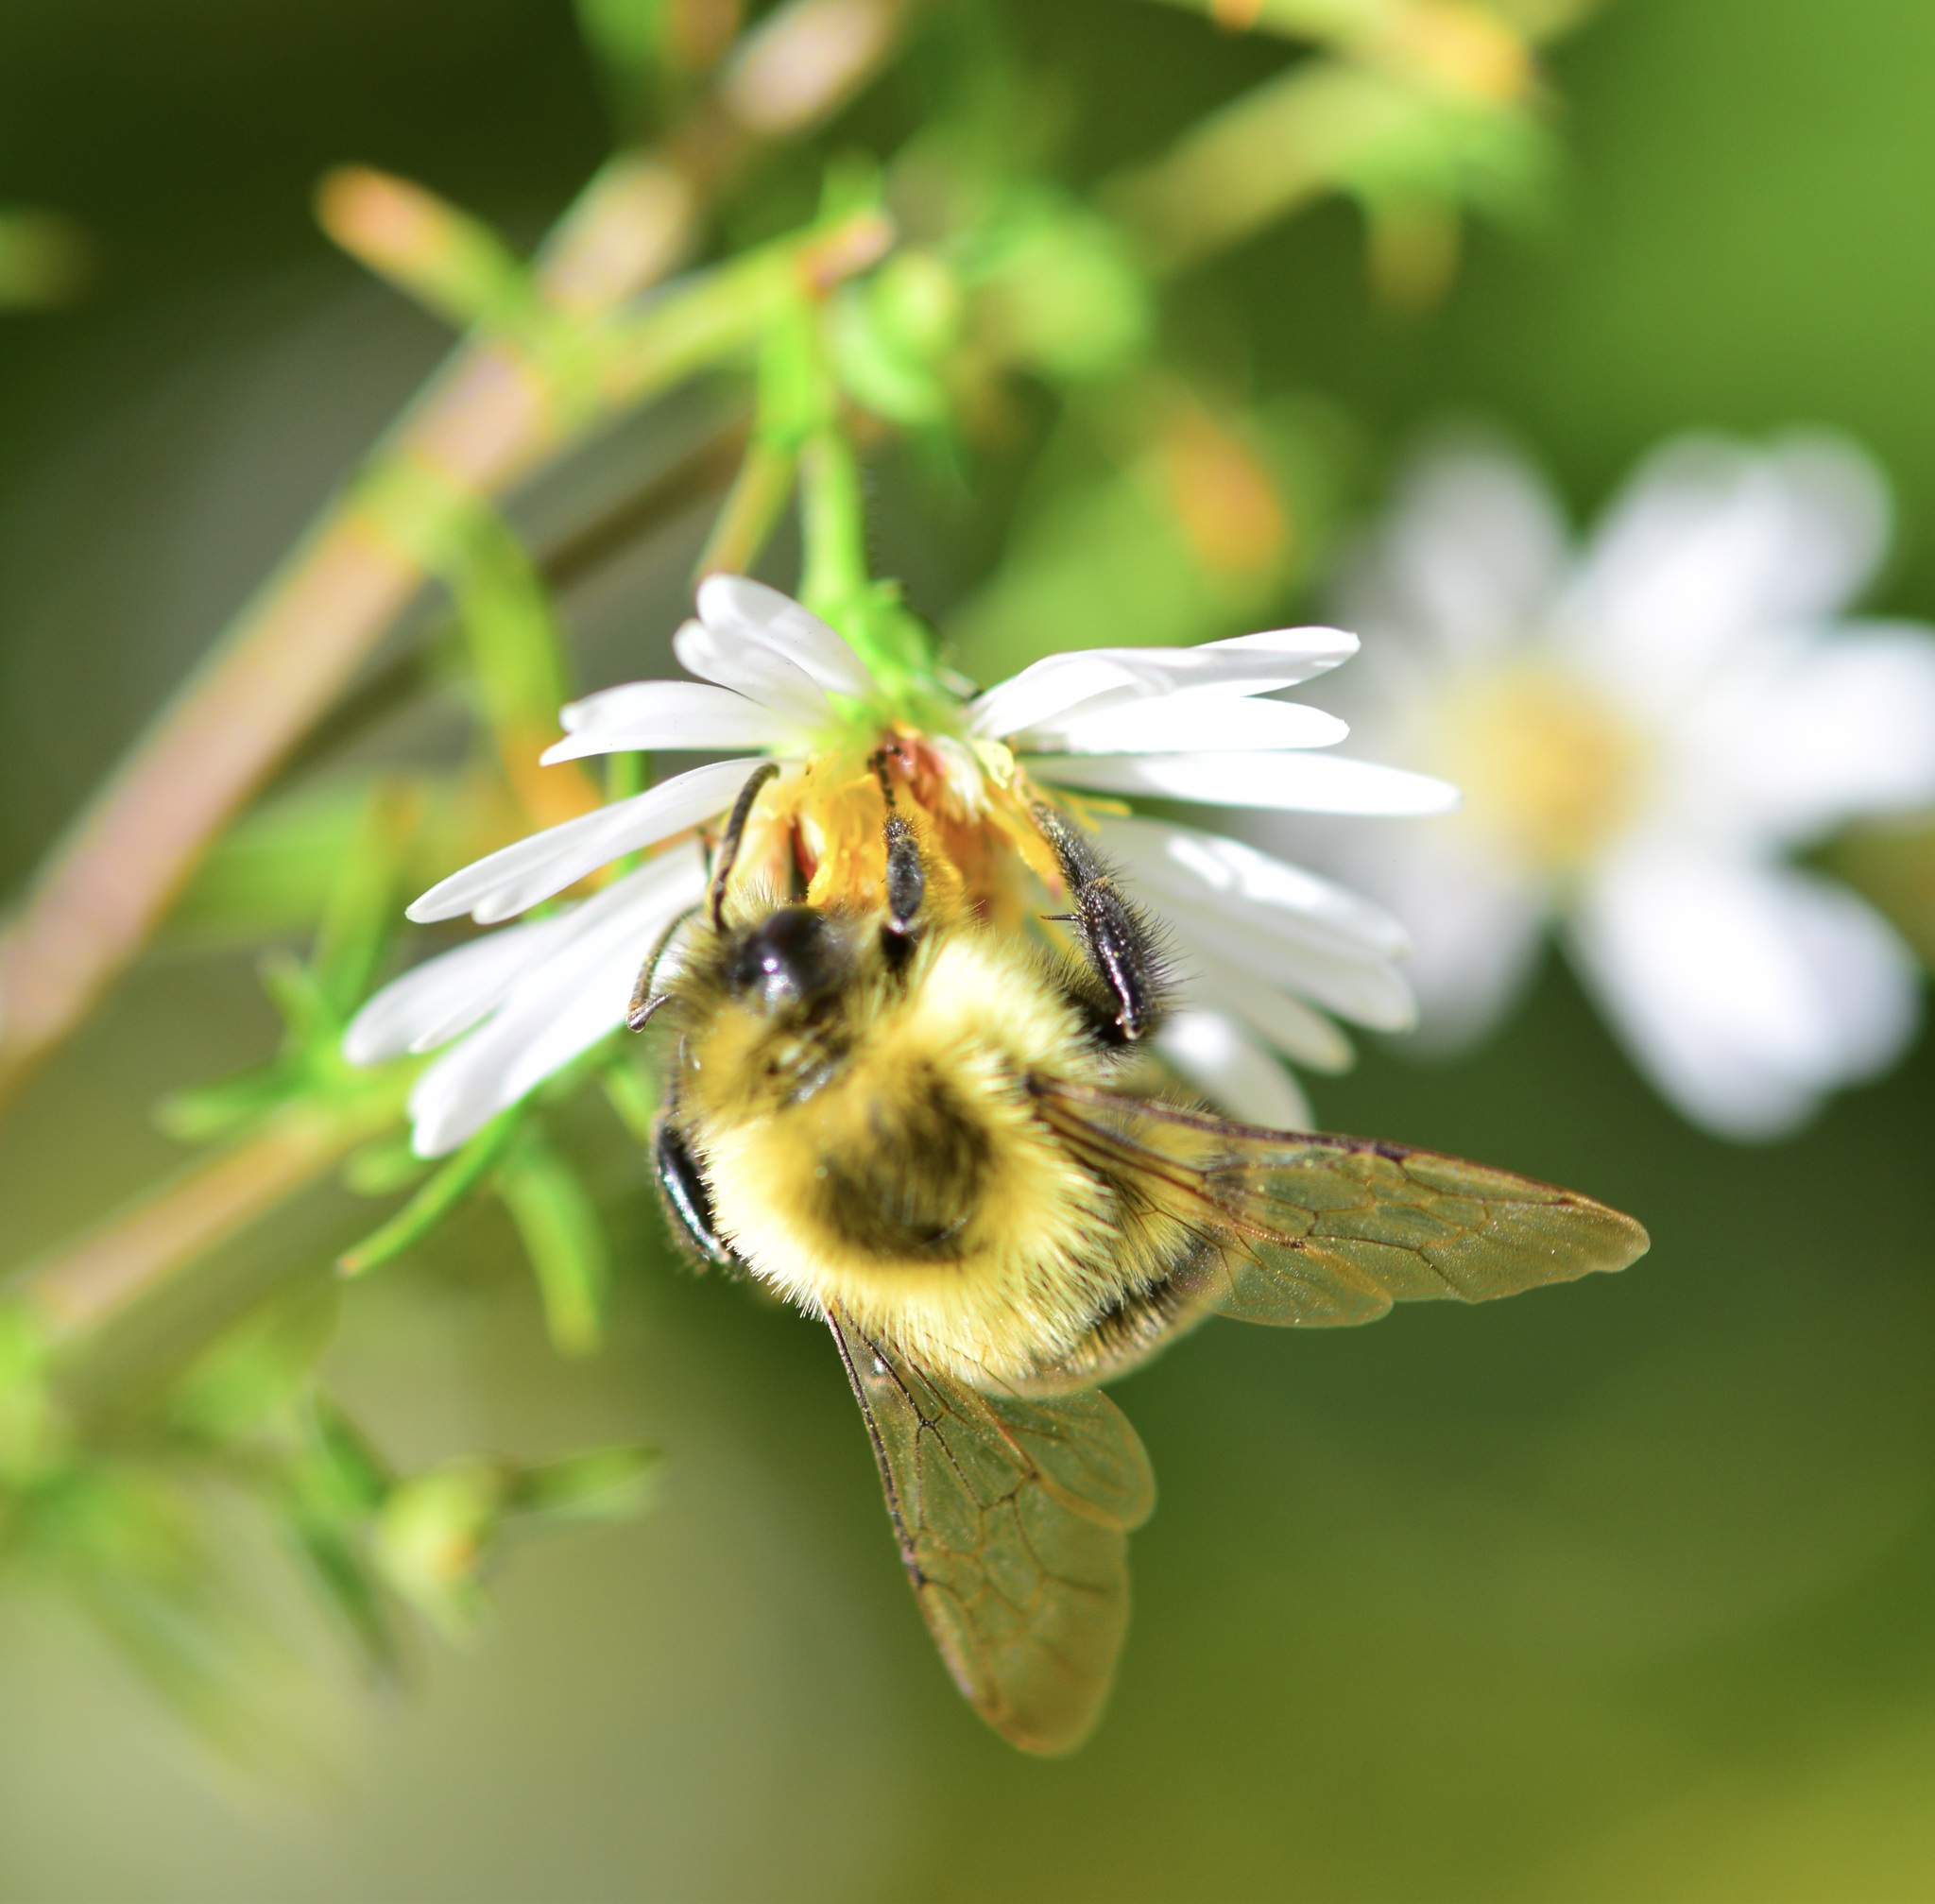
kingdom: Animalia
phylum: Arthropoda
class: Insecta
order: Hymenoptera
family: Apidae
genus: Bombus
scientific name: Bombus impatiens
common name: Common eastern bumble bee
